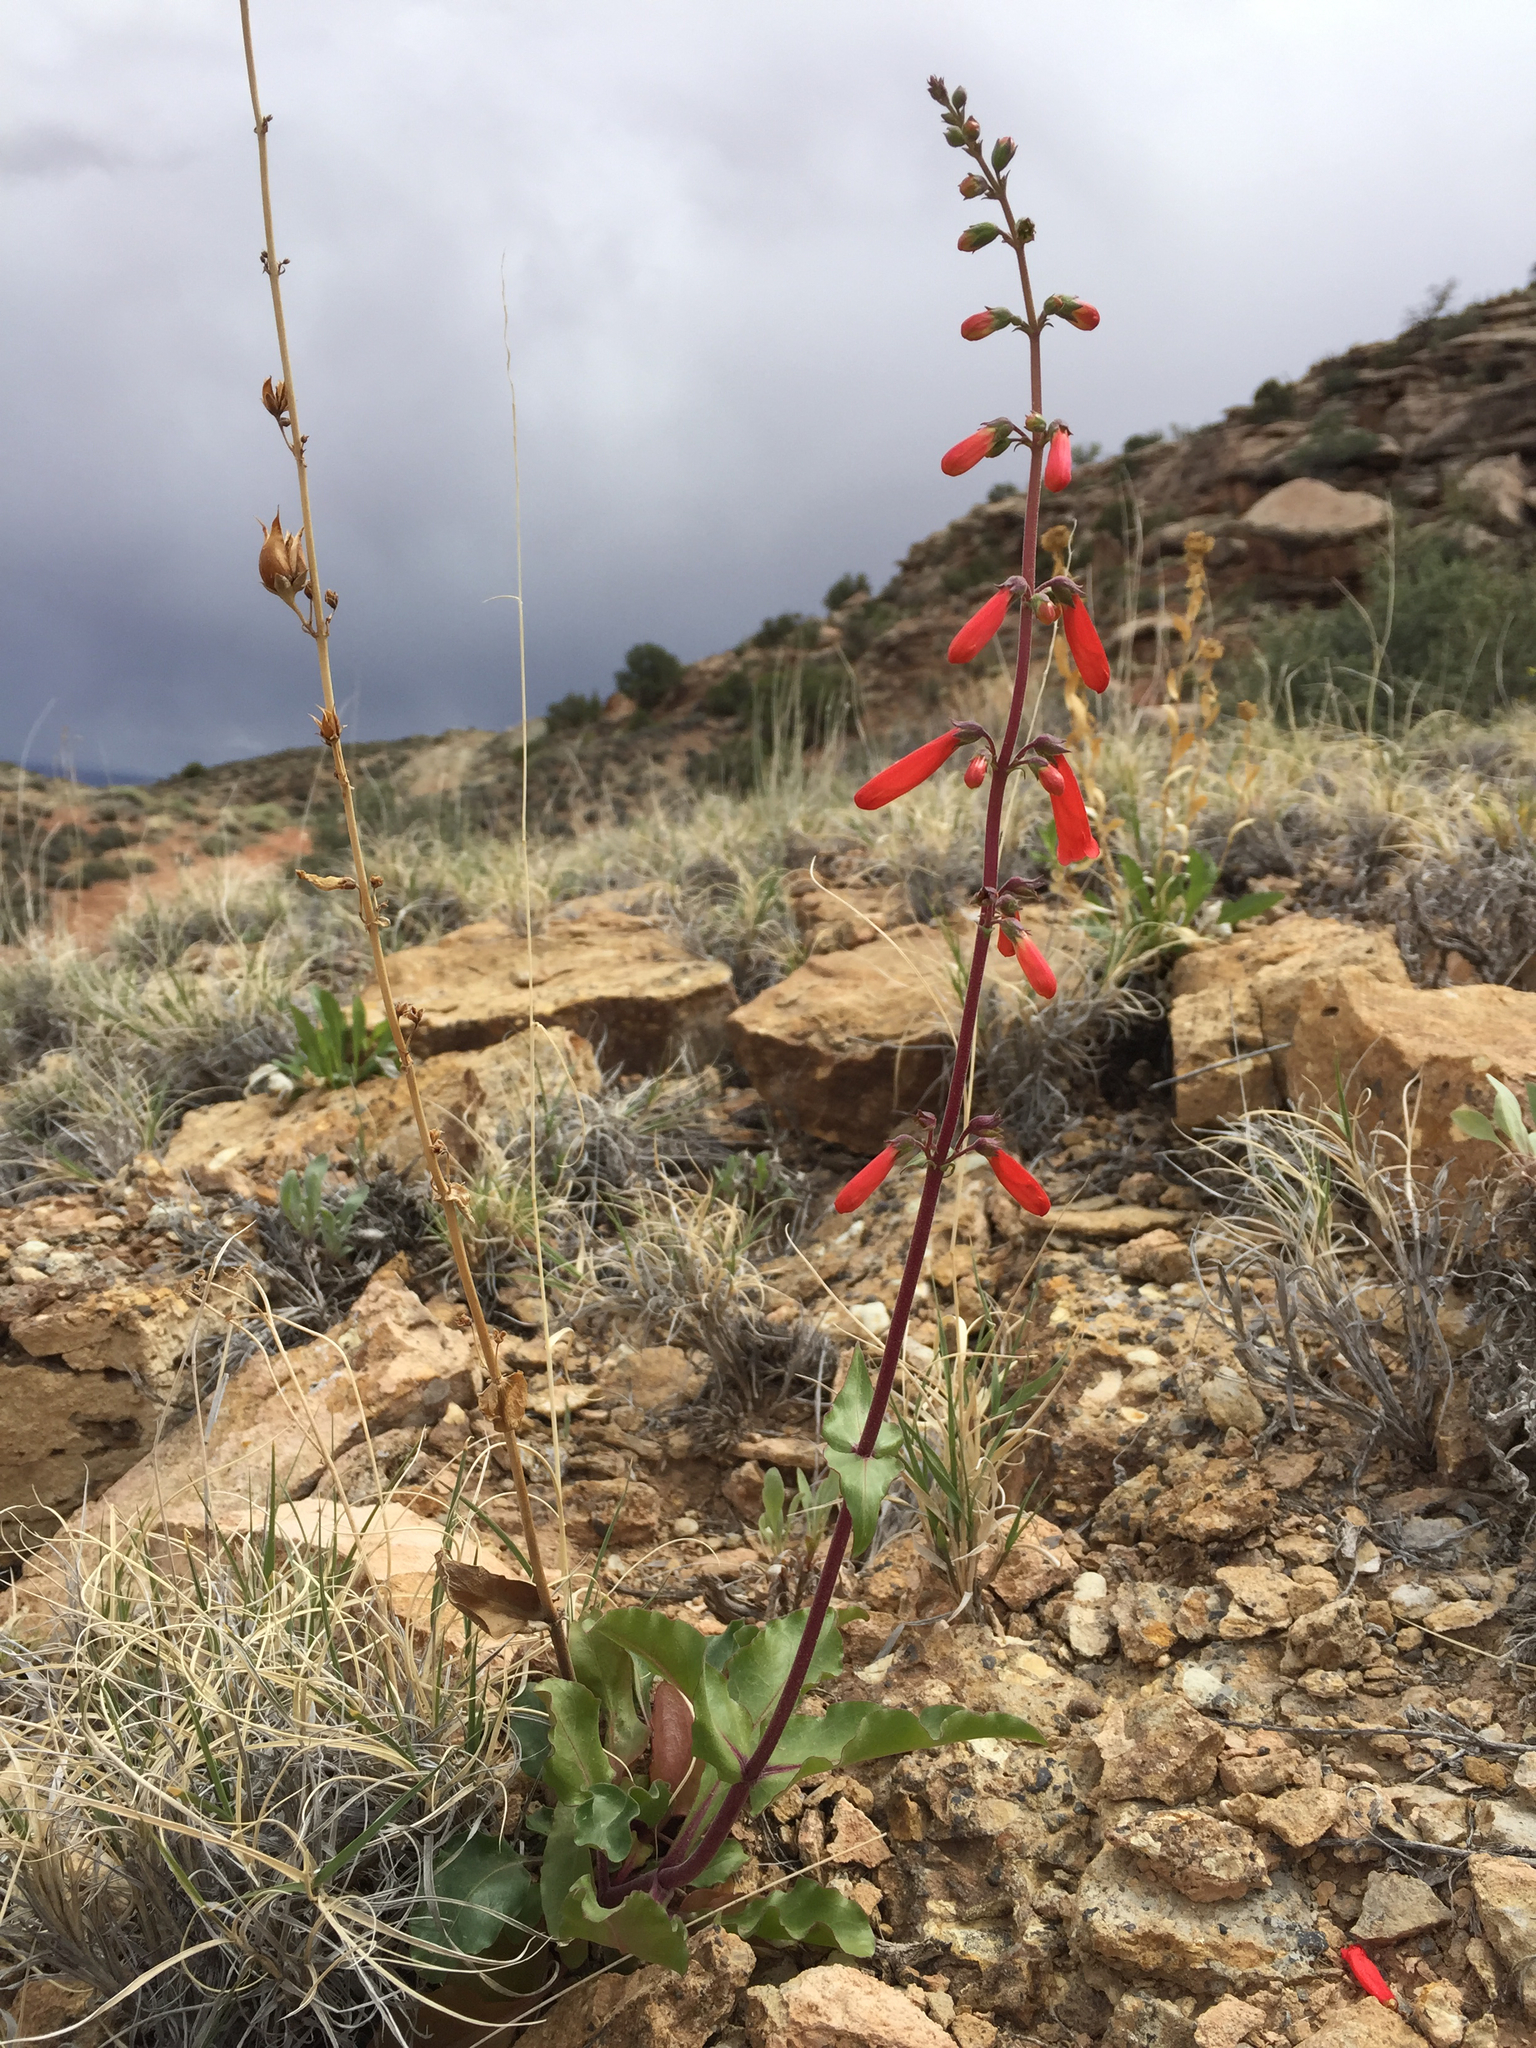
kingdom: Plantae
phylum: Tracheophyta
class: Magnoliopsida
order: Lamiales
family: Plantaginaceae
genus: Penstemon
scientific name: Penstemon eatonii
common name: Eaton's penstemon
